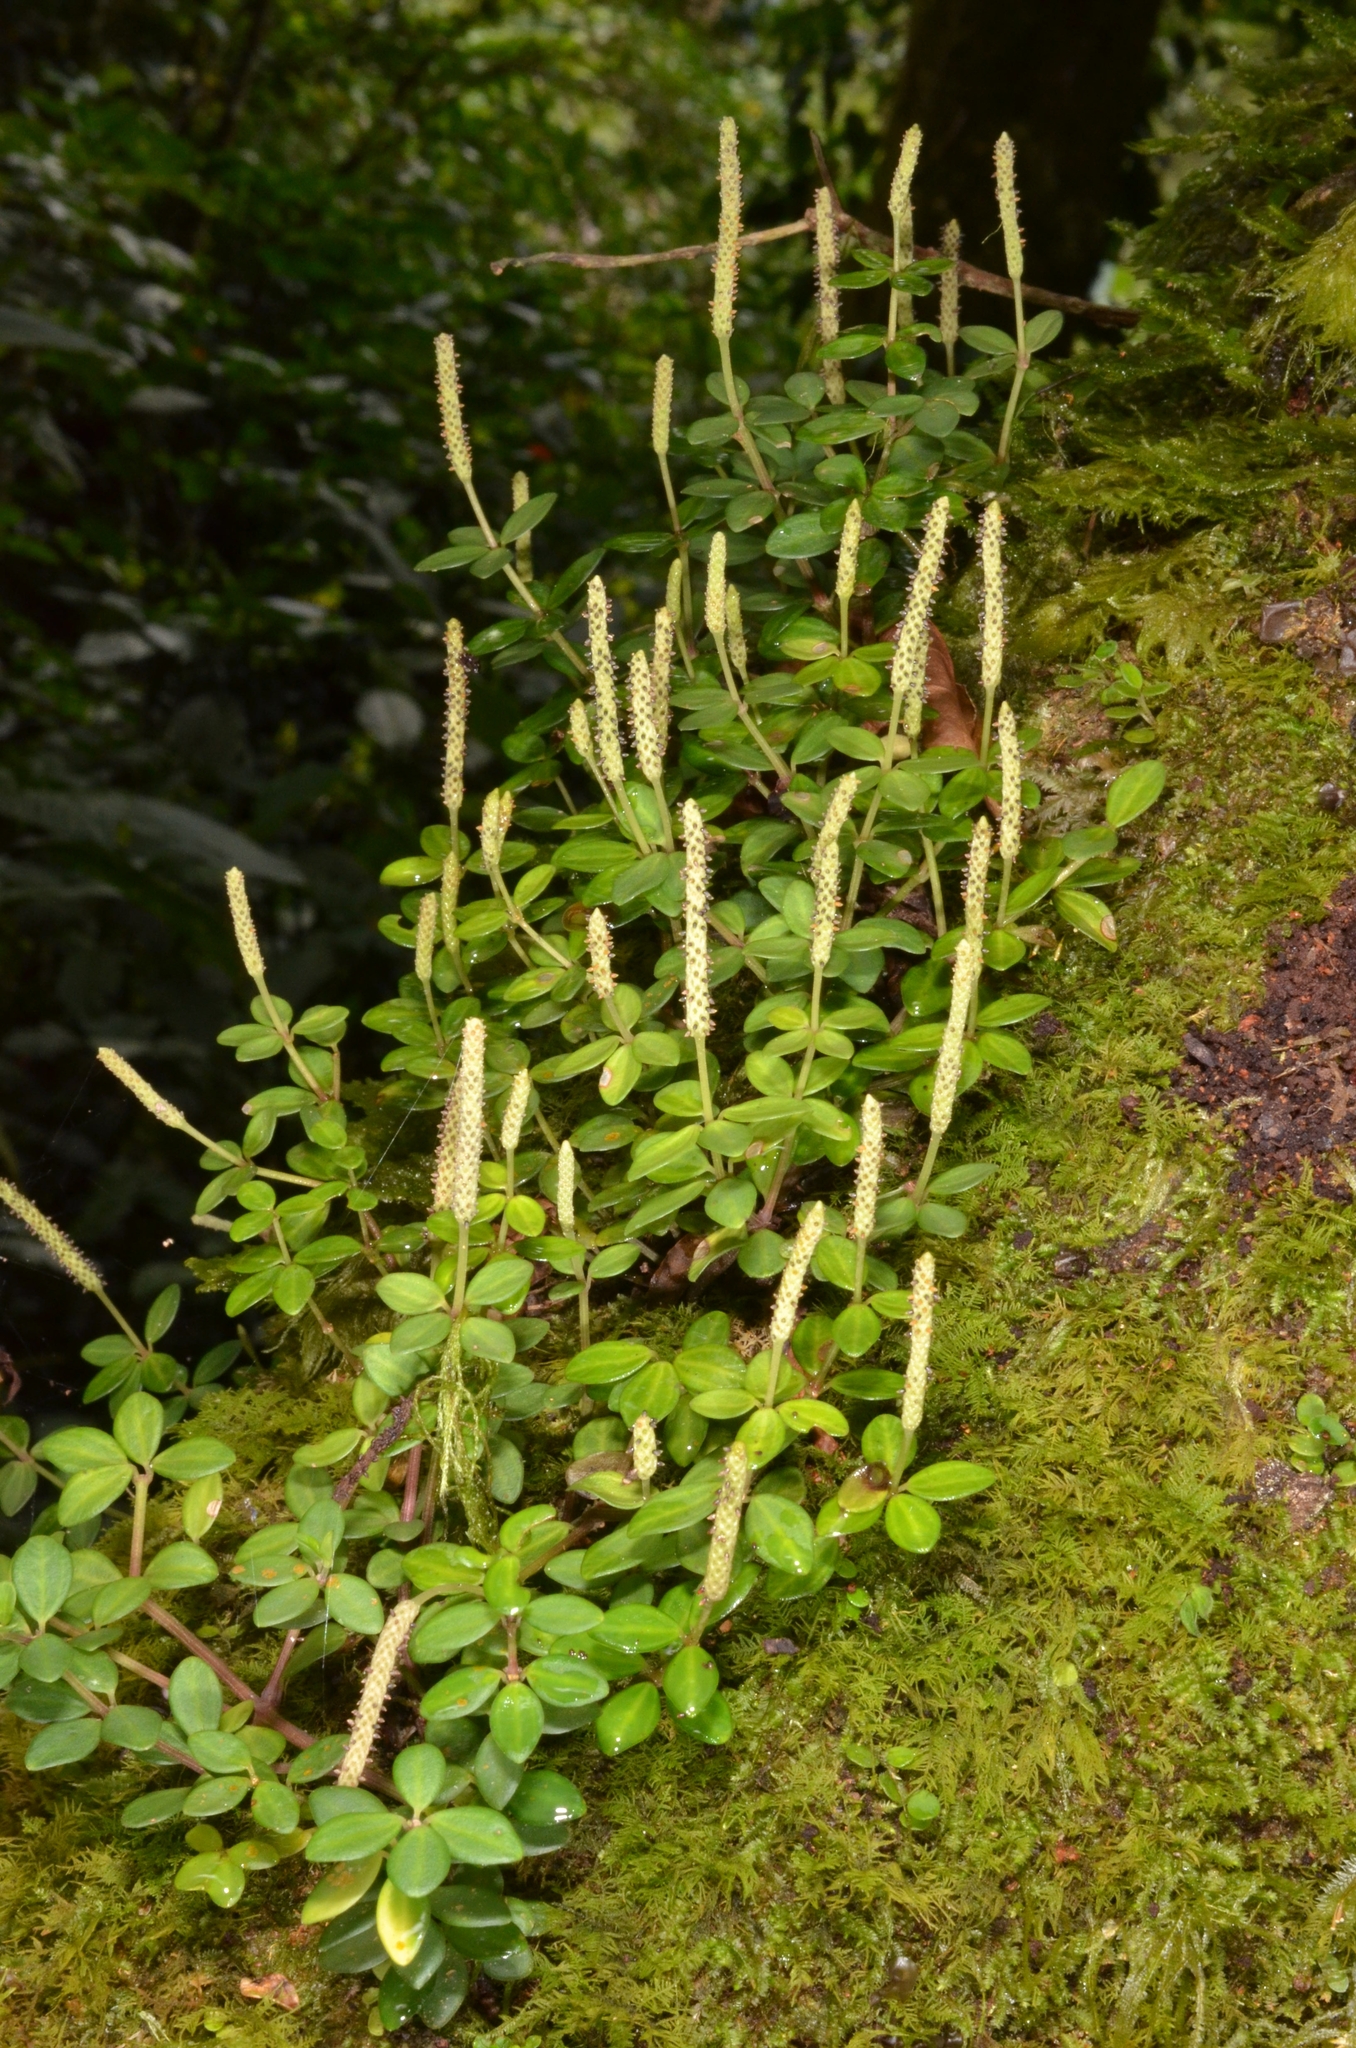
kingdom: Plantae
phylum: Tracheophyta
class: Magnoliopsida
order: Piperales
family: Piperaceae
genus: Peperomia
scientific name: Peperomia tetraphylla
